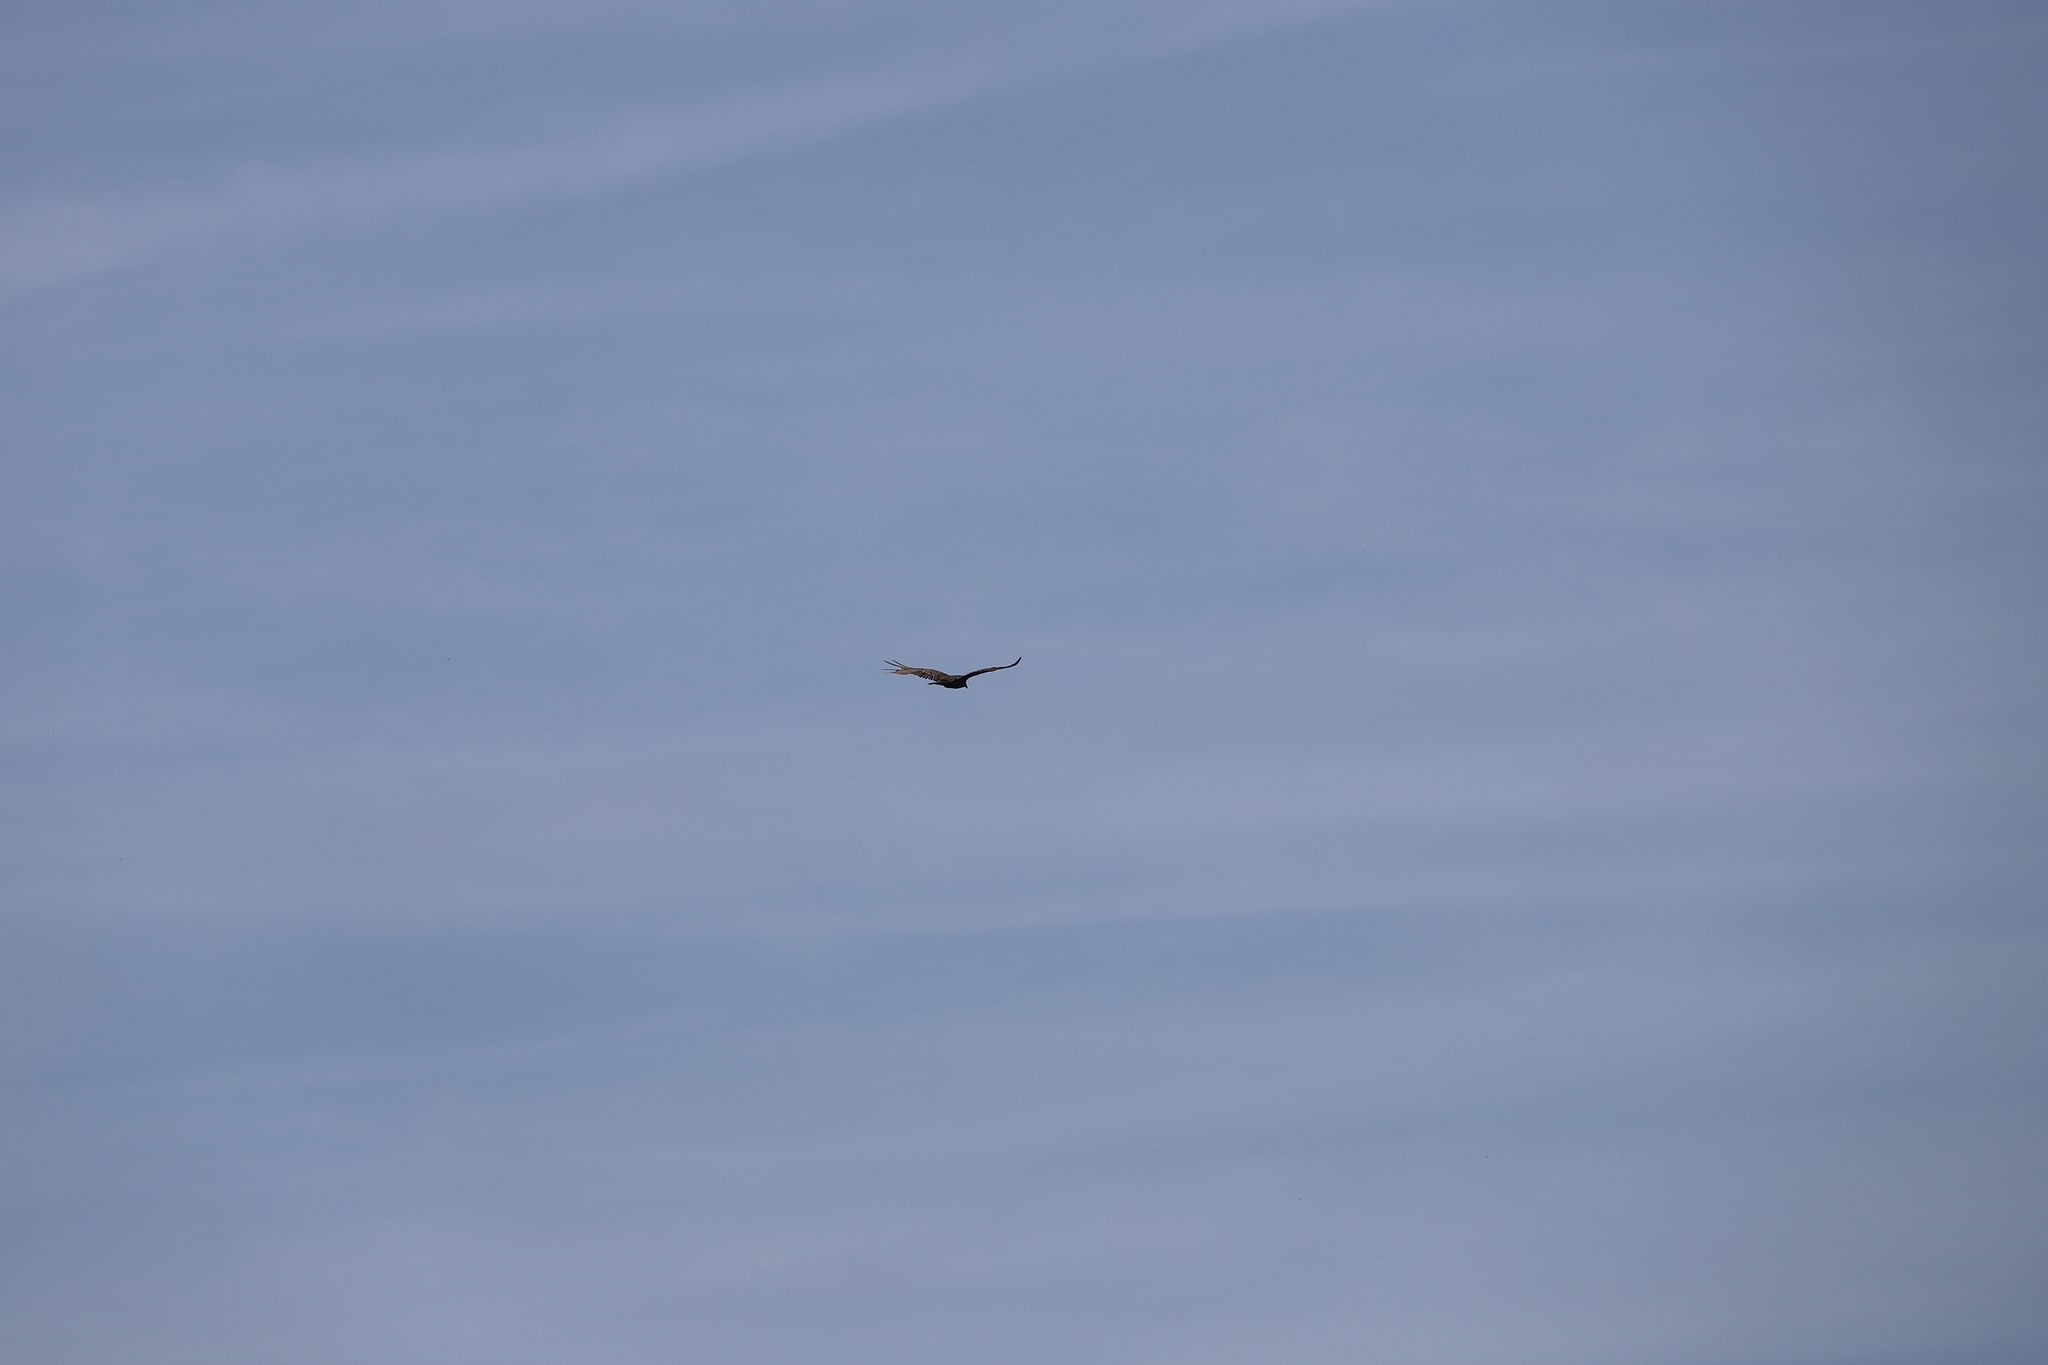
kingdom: Animalia
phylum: Chordata
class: Aves
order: Accipitriformes
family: Cathartidae
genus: Cathartes
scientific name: Cathartes aura
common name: Turkey vulture
